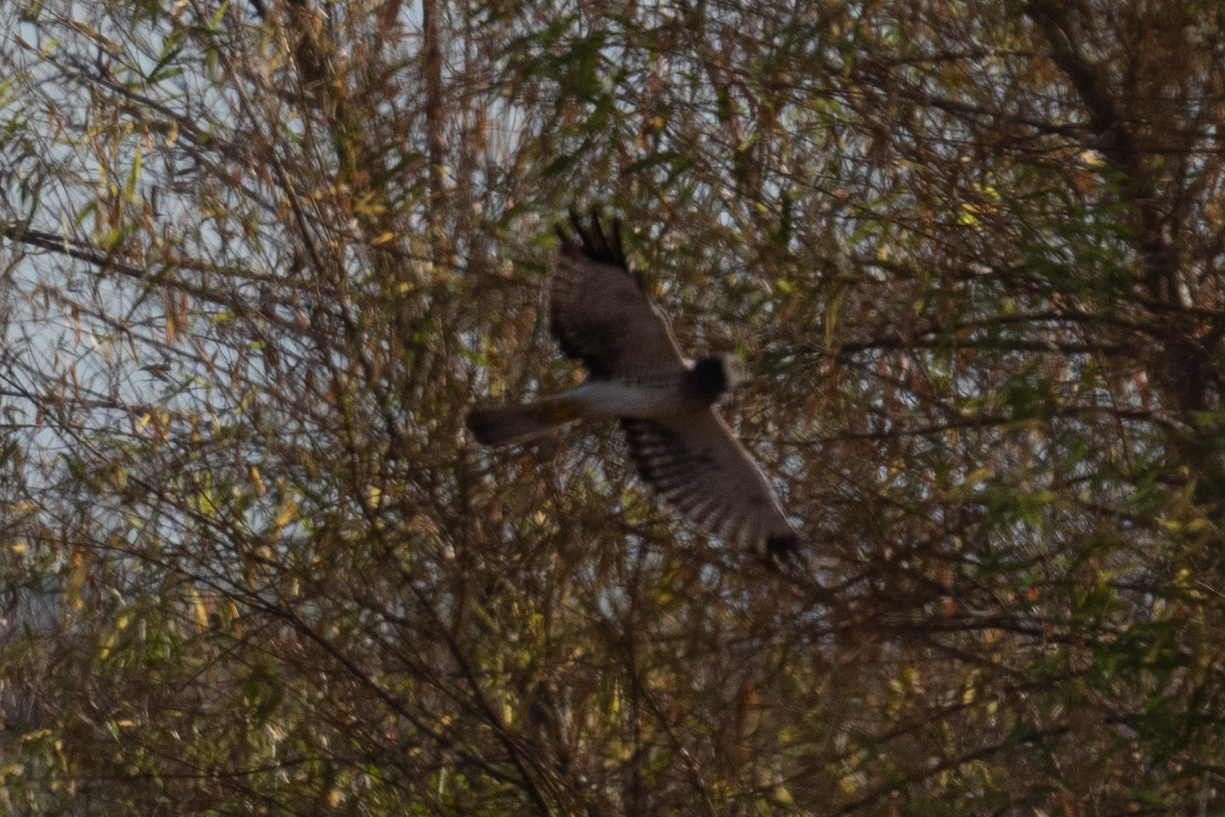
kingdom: Animalia
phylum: Chordata
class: Aves
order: Accipitriformes
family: Accipitridae
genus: Circus
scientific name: Circus cyaneus
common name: Hen harrier
